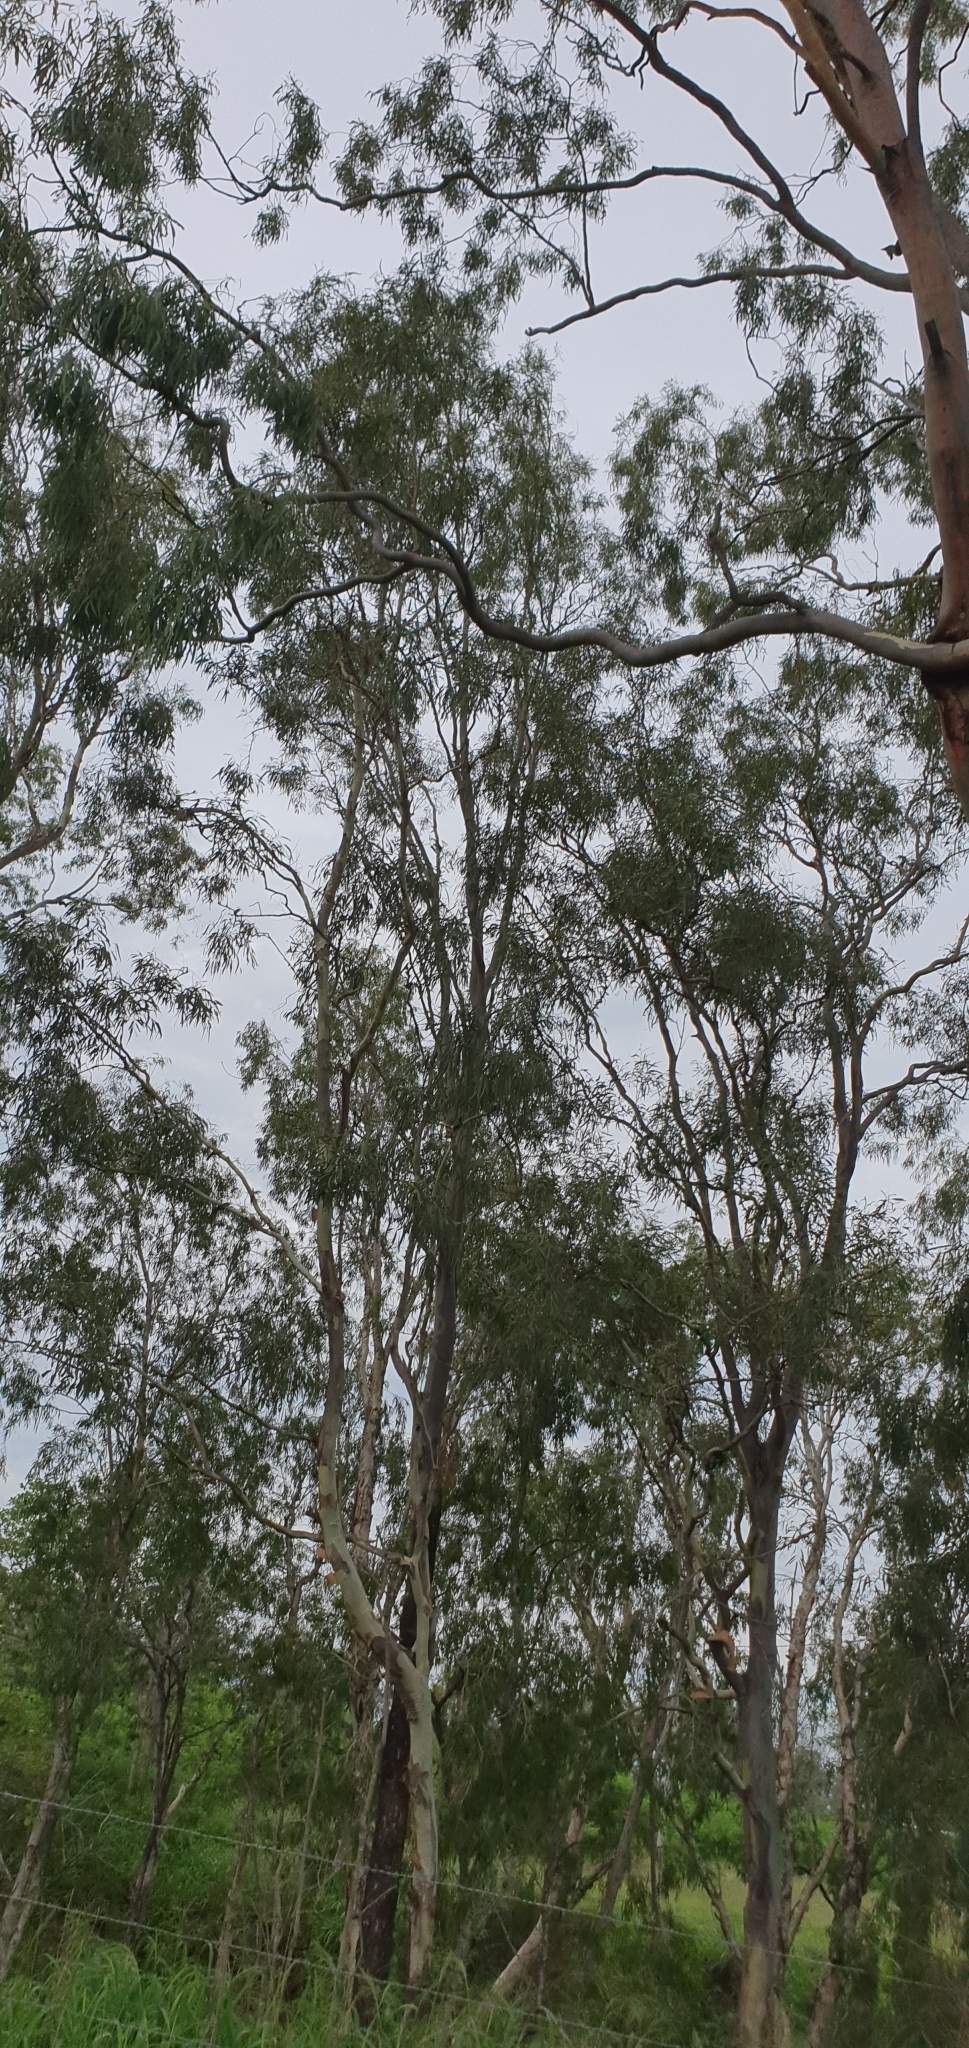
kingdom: Animalia
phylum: Arthropoda
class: Insecta
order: Hemiptera
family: Cicadidae
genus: Psaltoda
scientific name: Psaltoda claripennis
